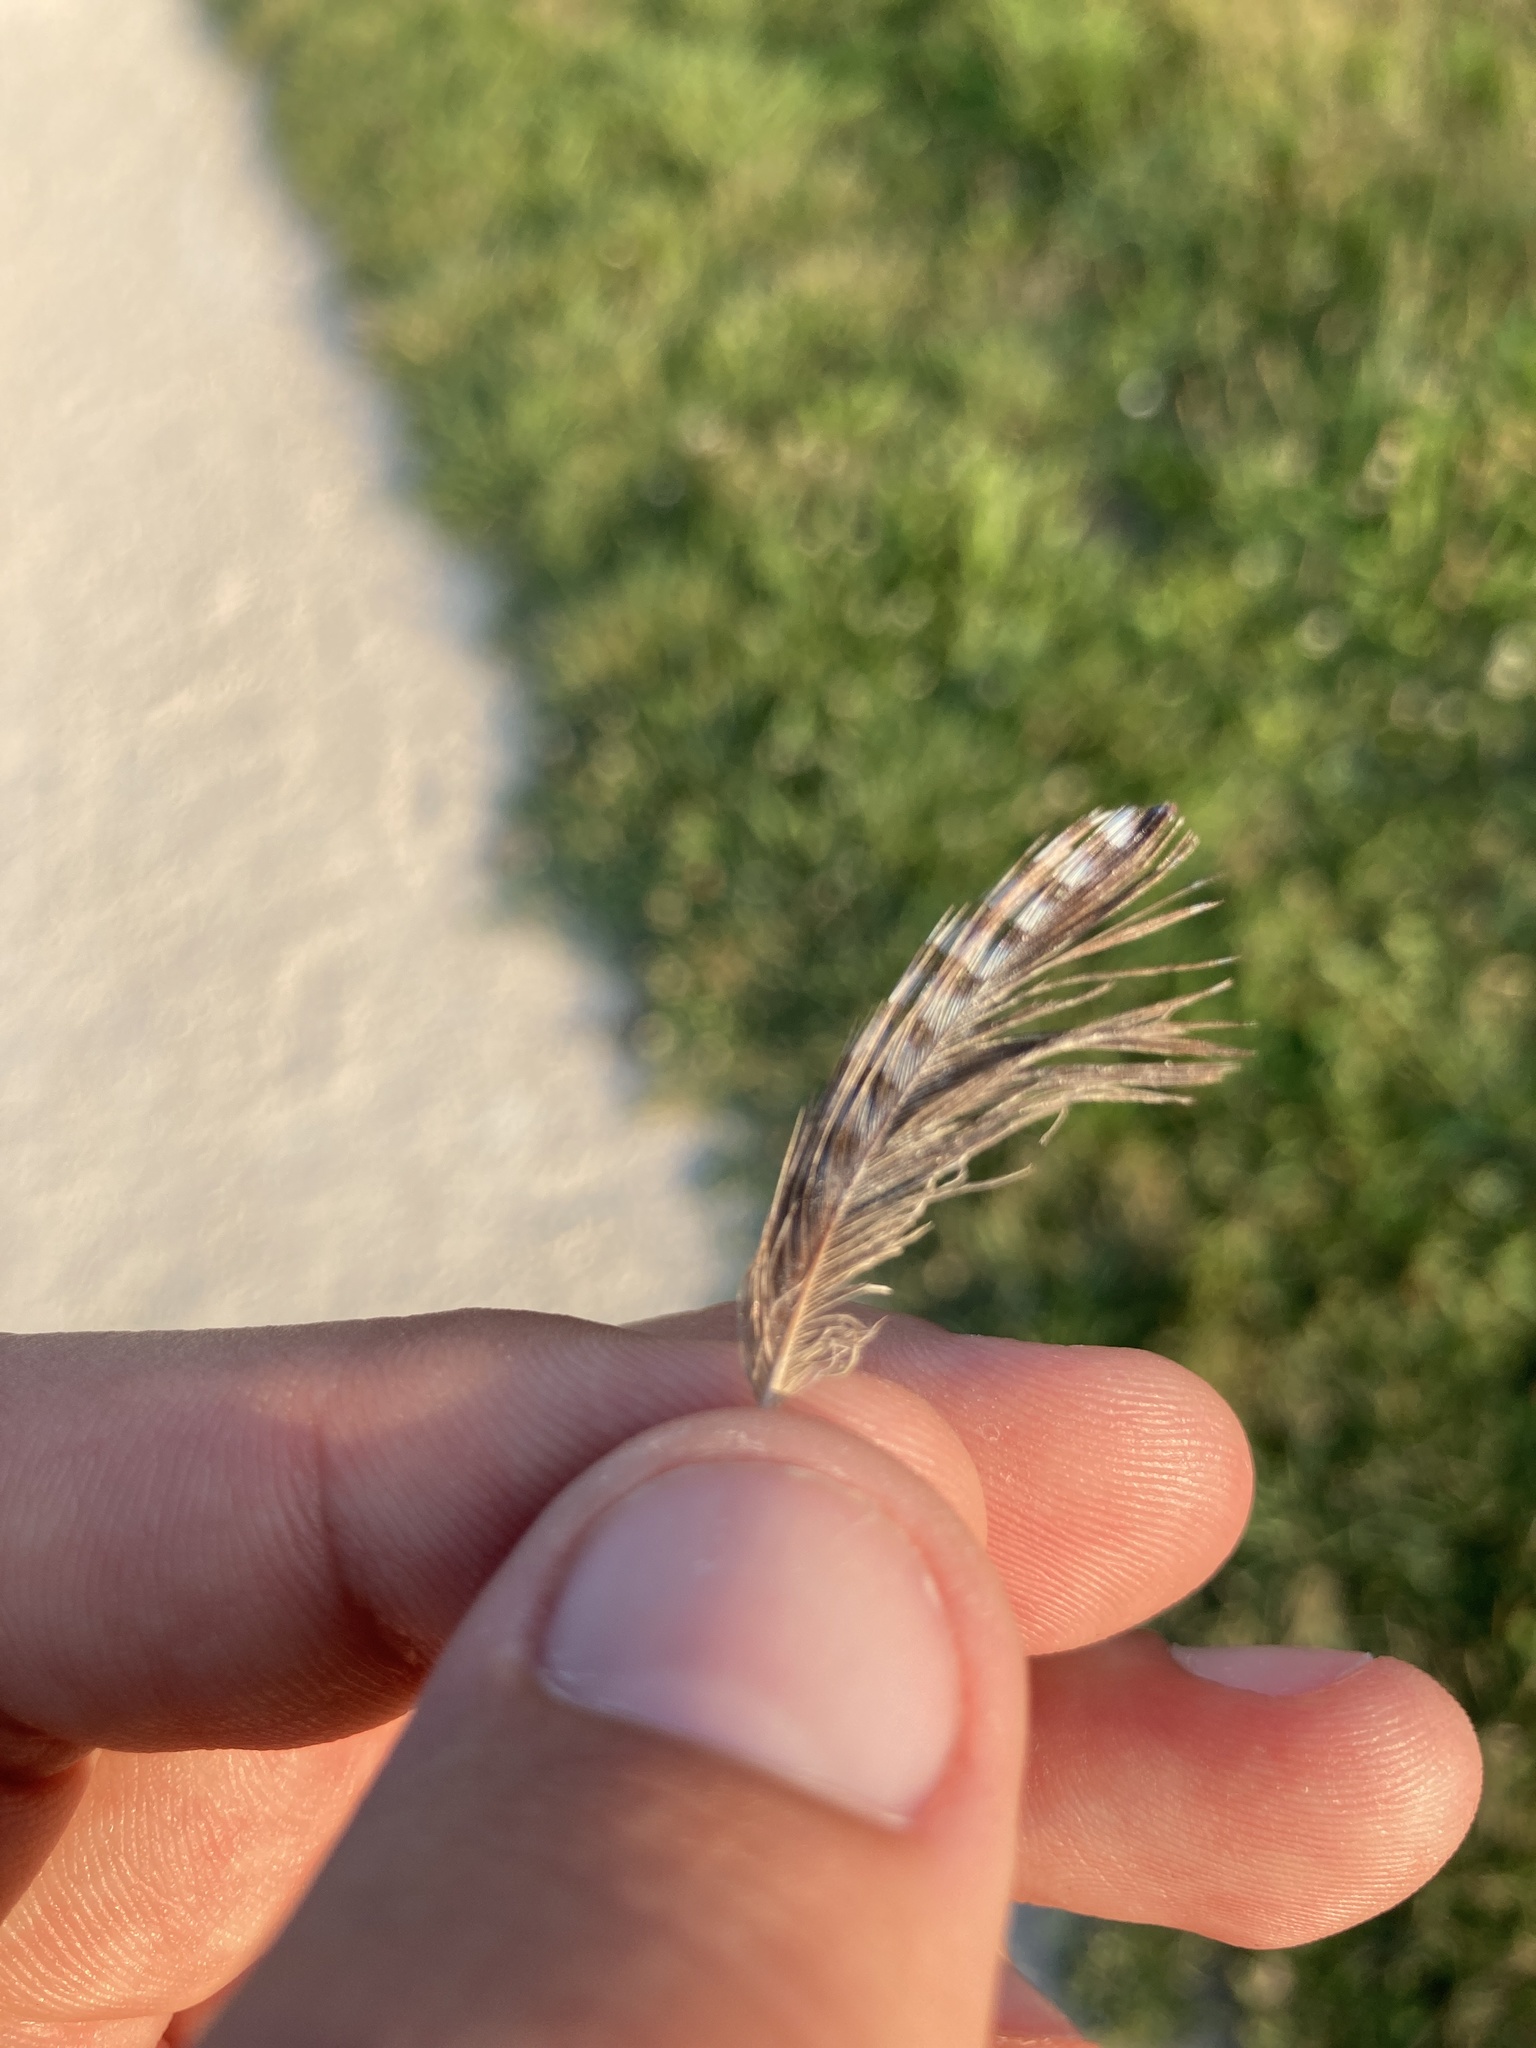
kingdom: Animalia
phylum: Chordata
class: Aves
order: Passeriformes
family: Corvidae
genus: Garrulus
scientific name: Garrulus glandarius
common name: Eurasian jay
